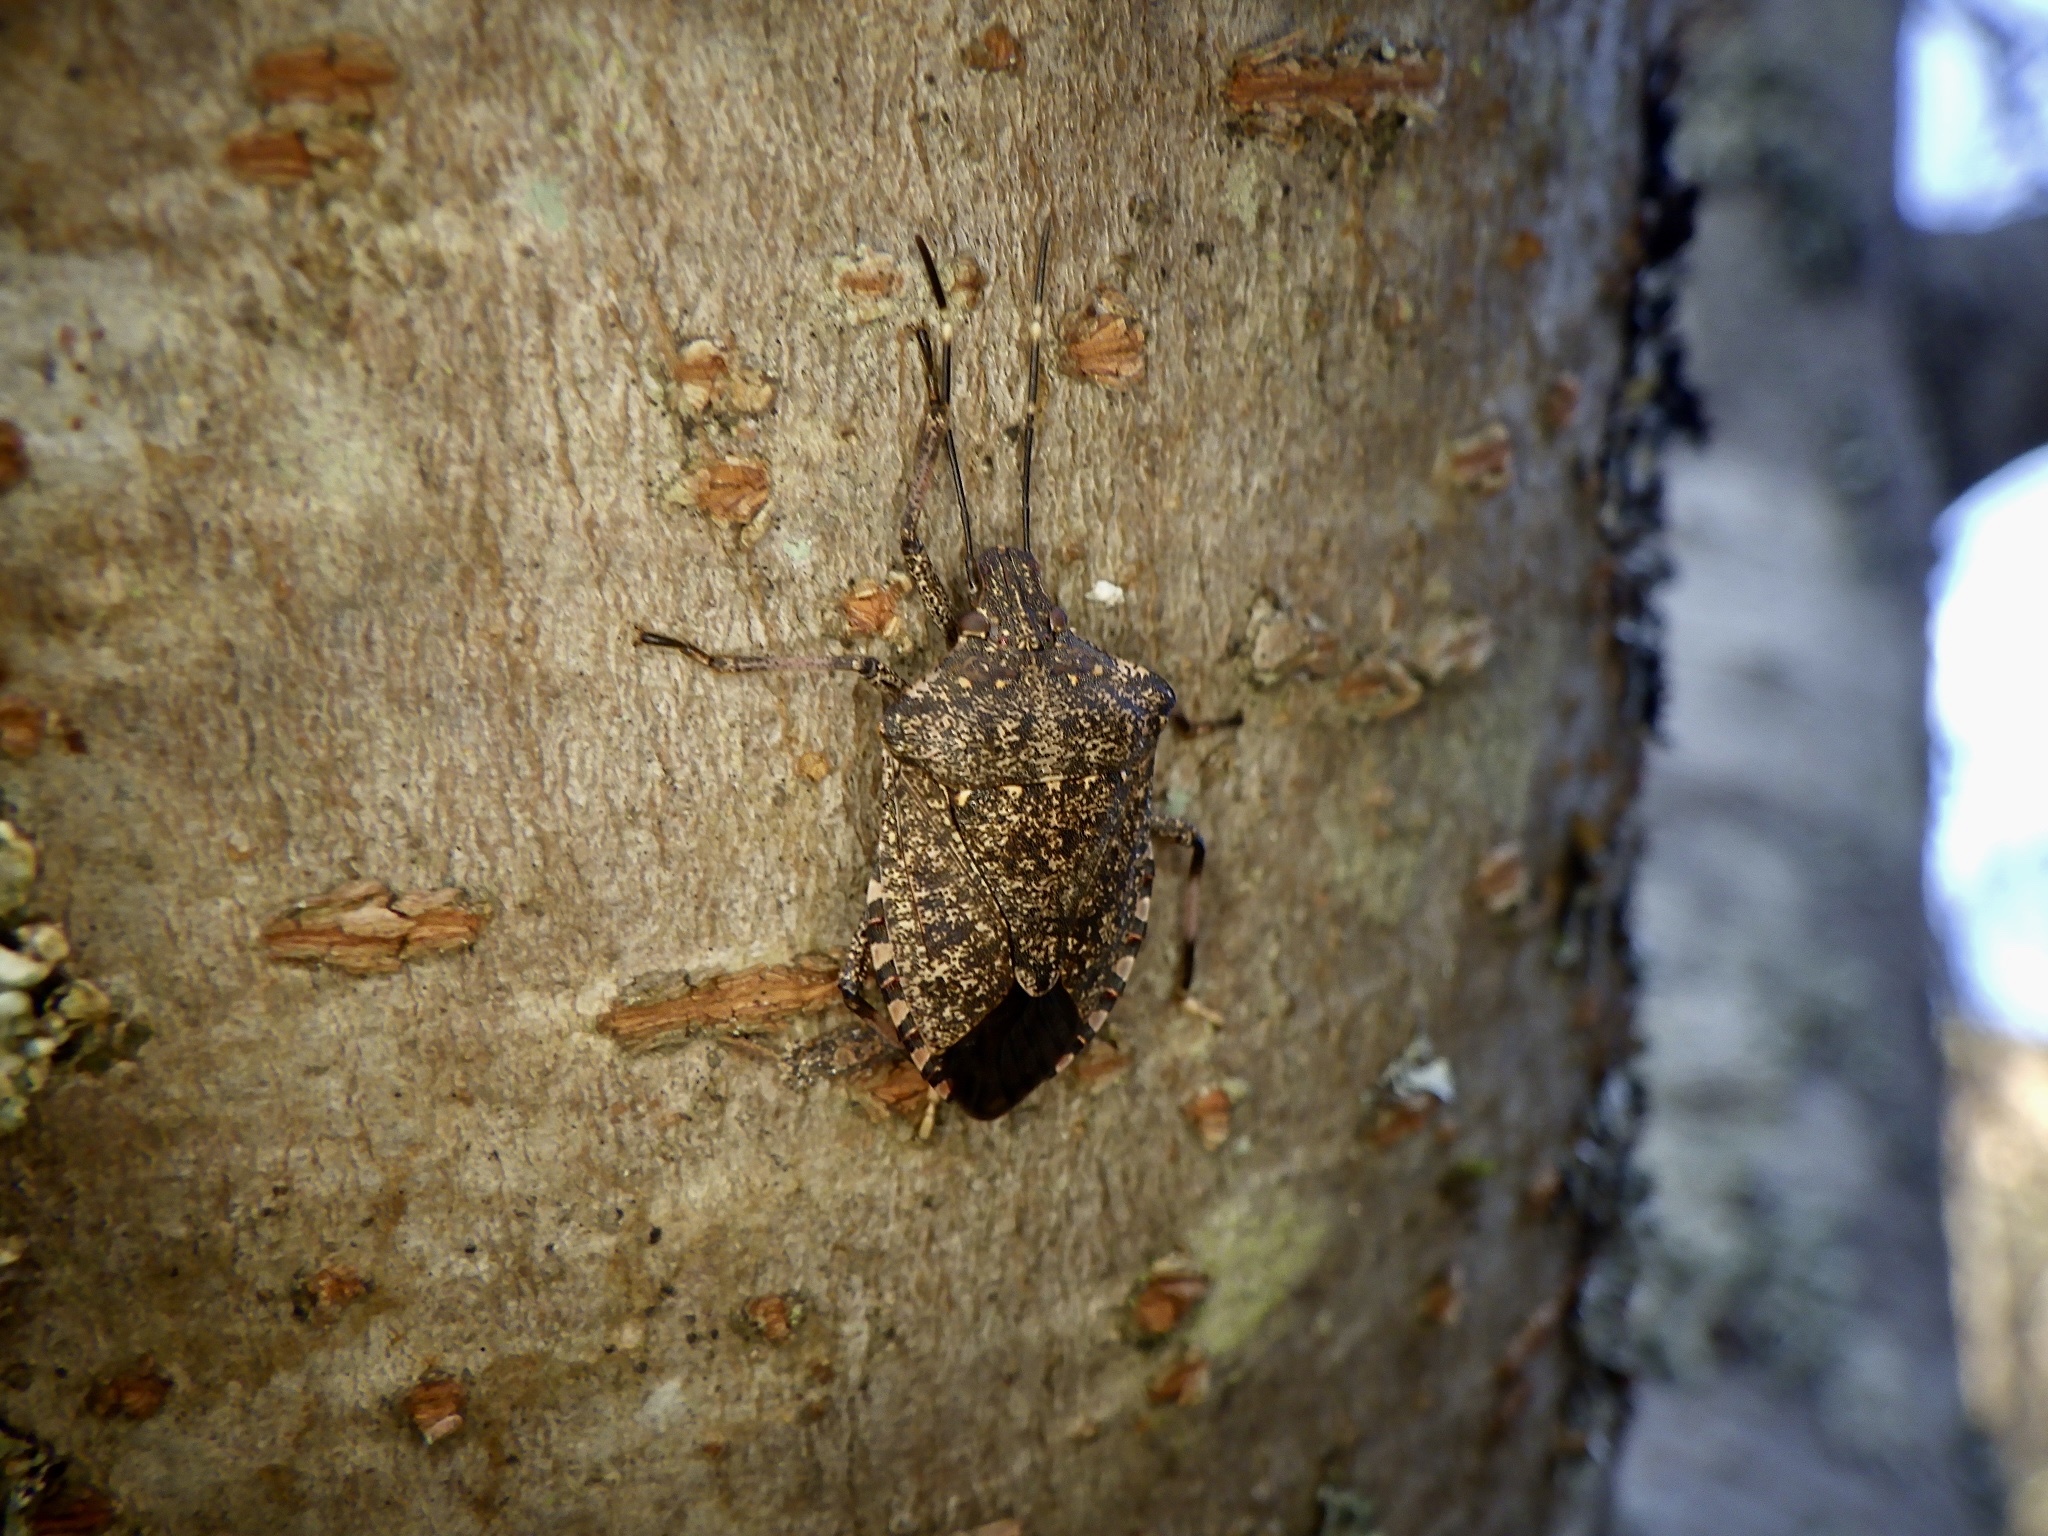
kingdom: Animalia
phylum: Arthropoda
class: Insecta
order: Hemiptera
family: Pentatomidae
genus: Halyomorpha
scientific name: Halyomorpha halys
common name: Brown marmorated stink bug
